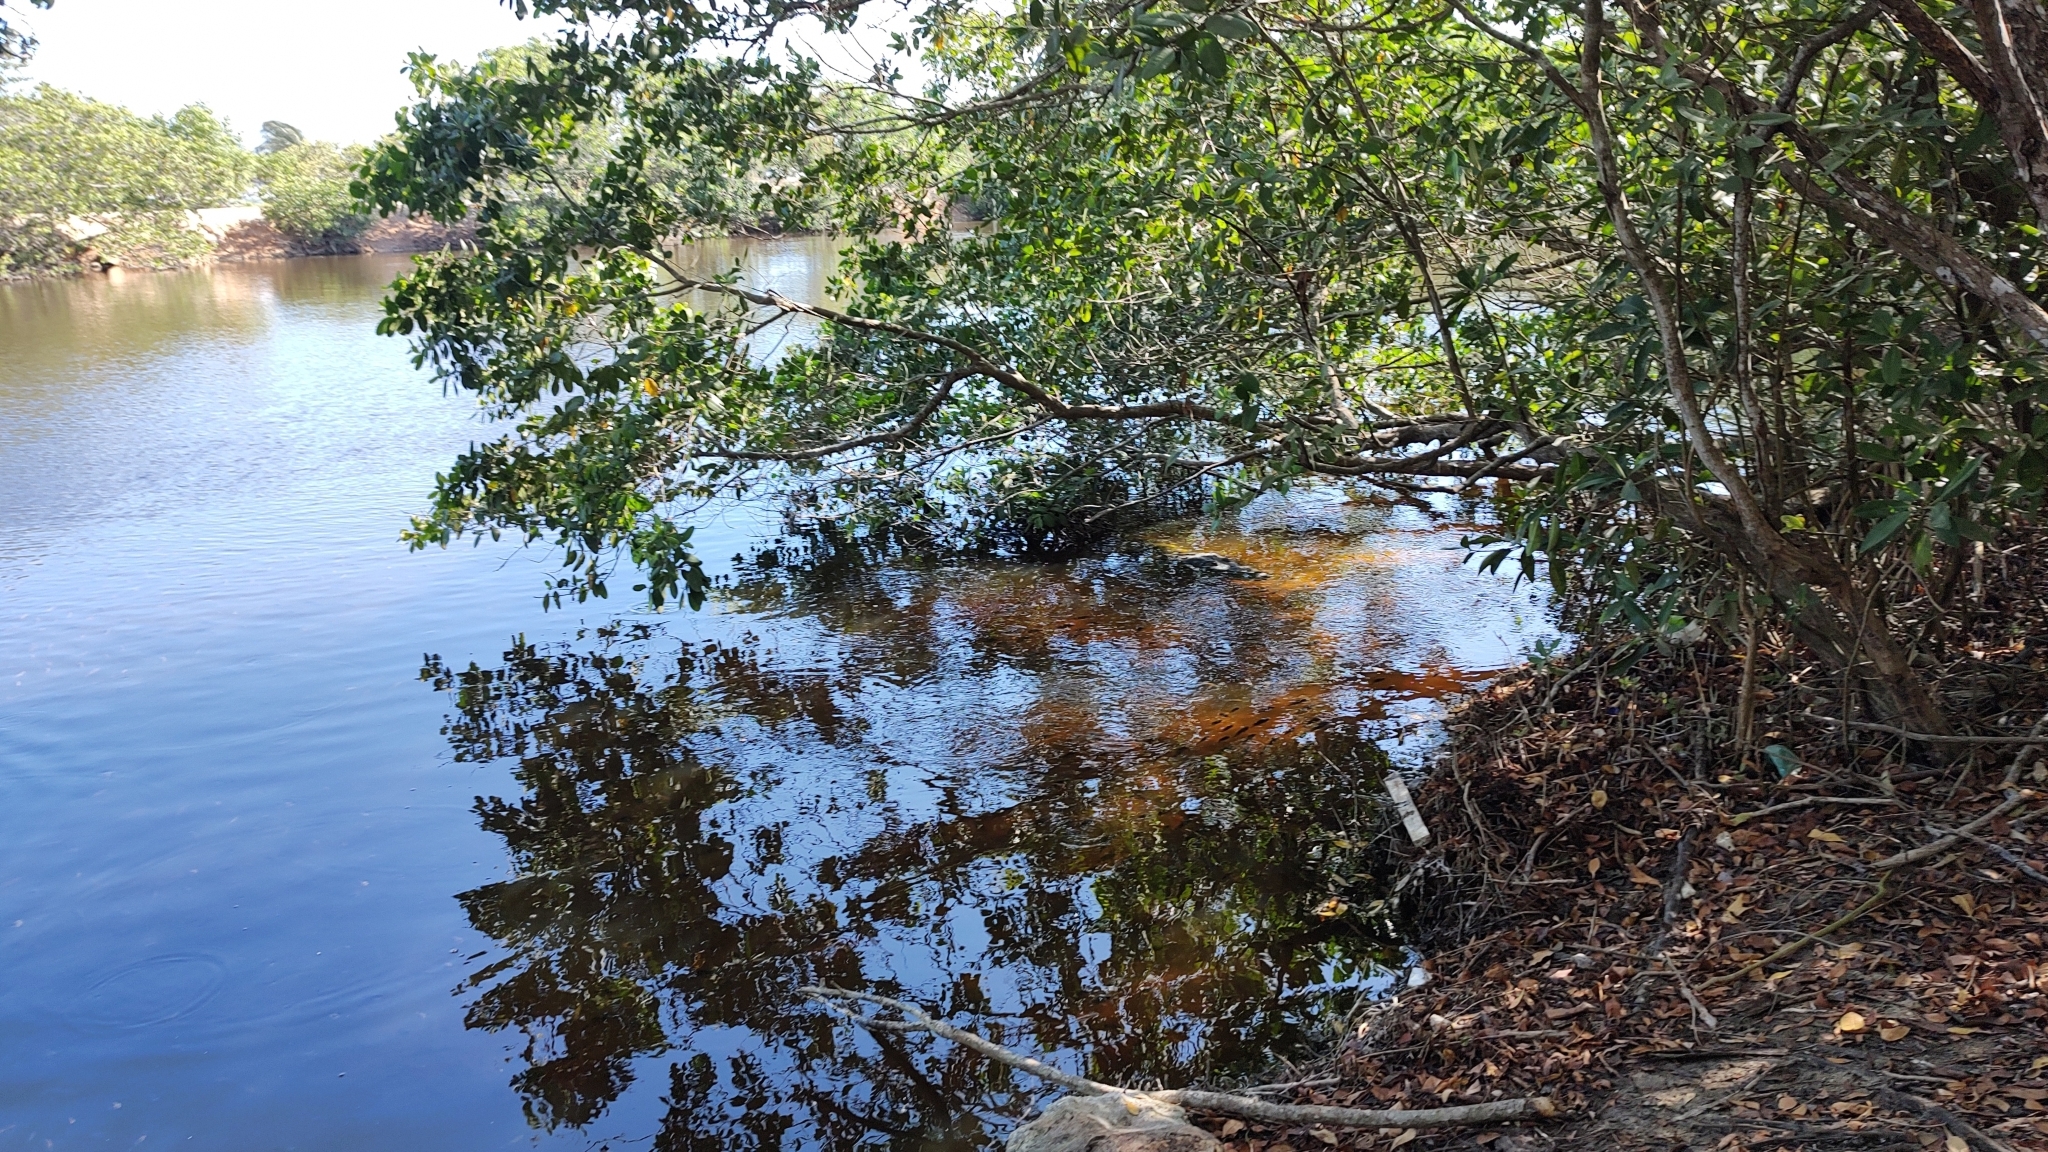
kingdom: Animalia
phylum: Chordata
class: Crocodylia
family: Crocodylidae
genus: Crocodylus
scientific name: Crocodylus moreletii
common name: Morelet's crocodile
